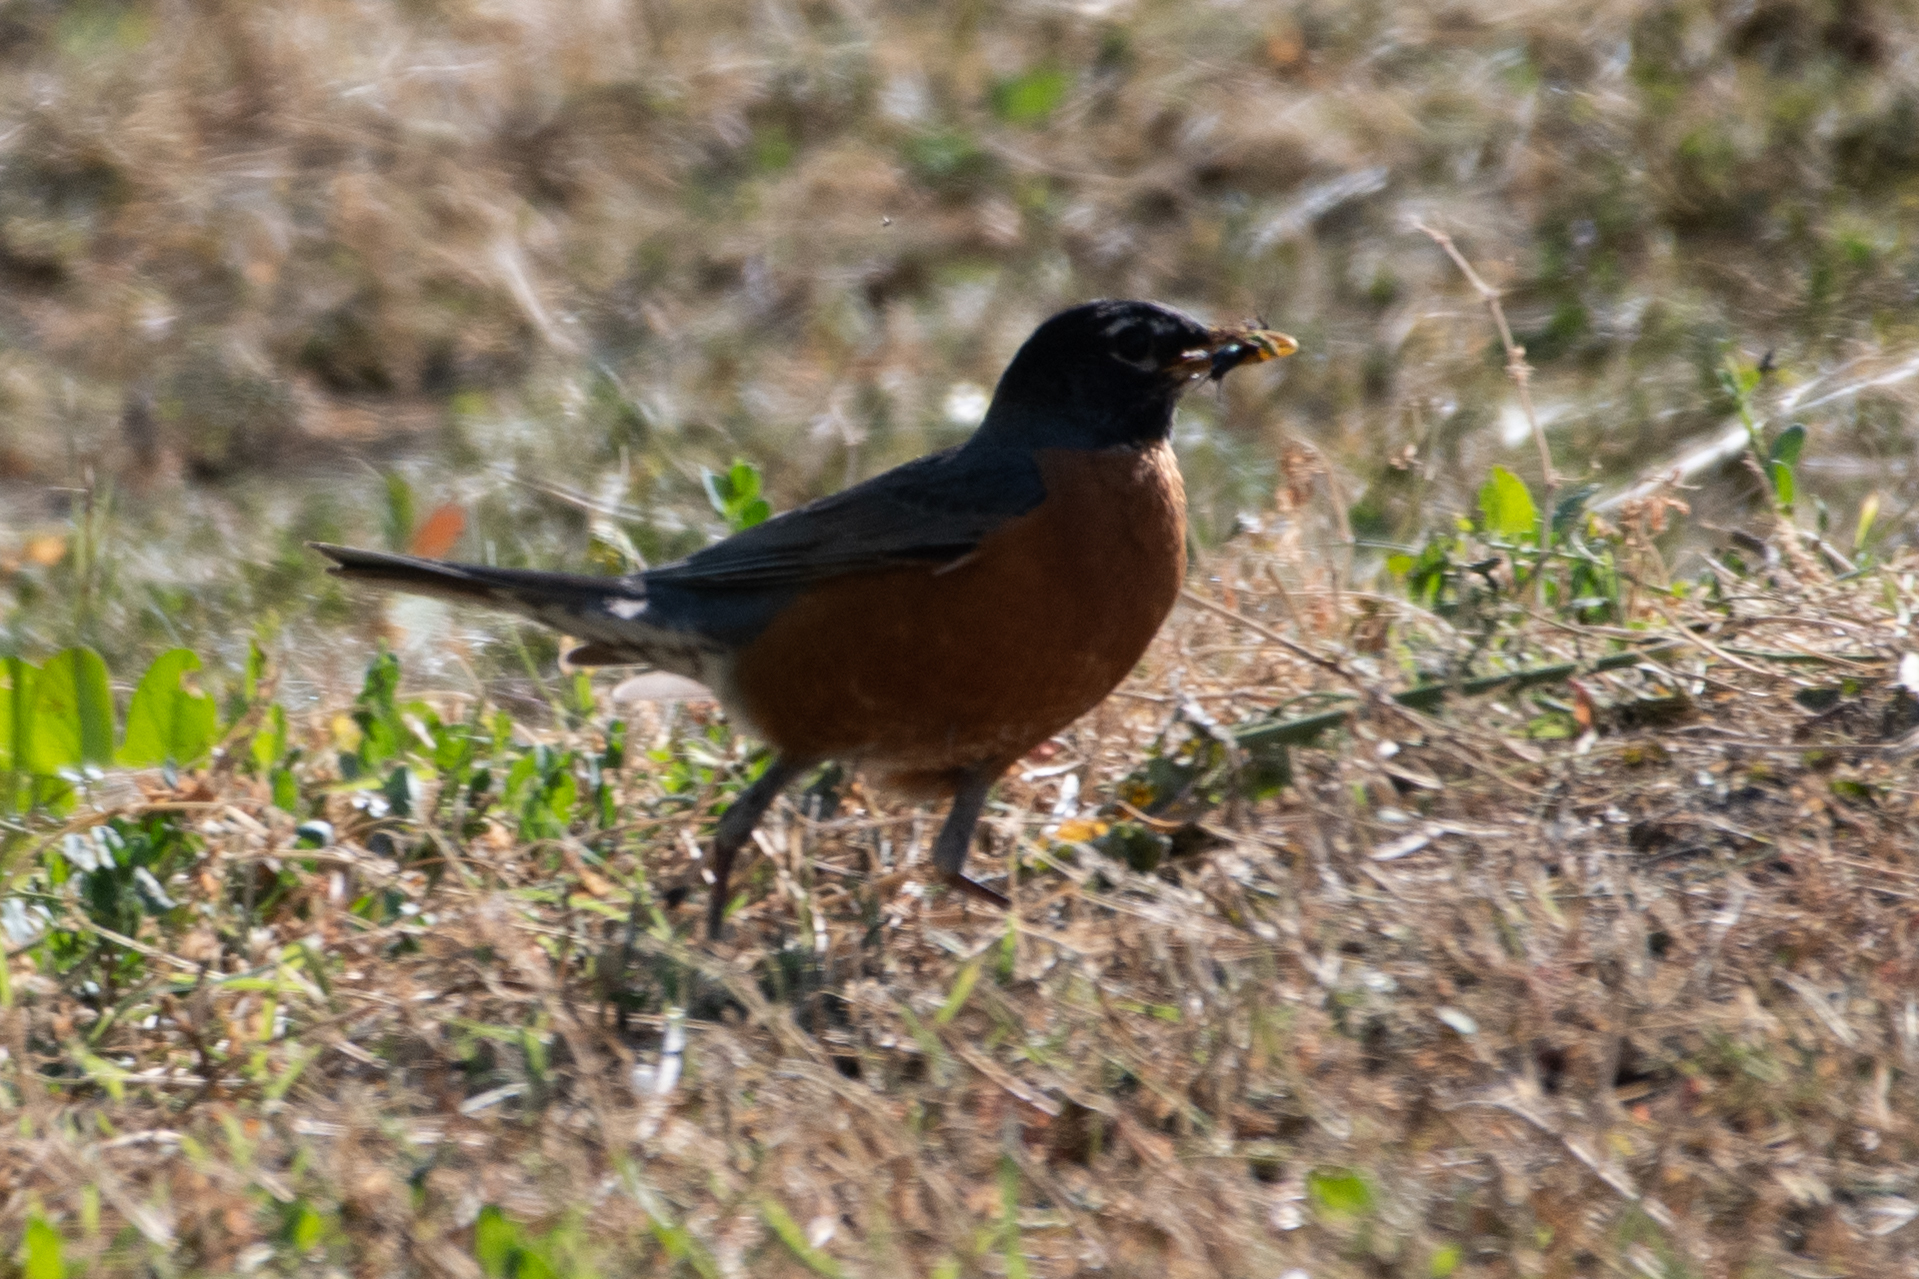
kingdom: Animalia
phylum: Chordata
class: Aves
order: Passeriformes
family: Turdidae
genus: Turdus
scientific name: Turdus migratorius
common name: American robin
